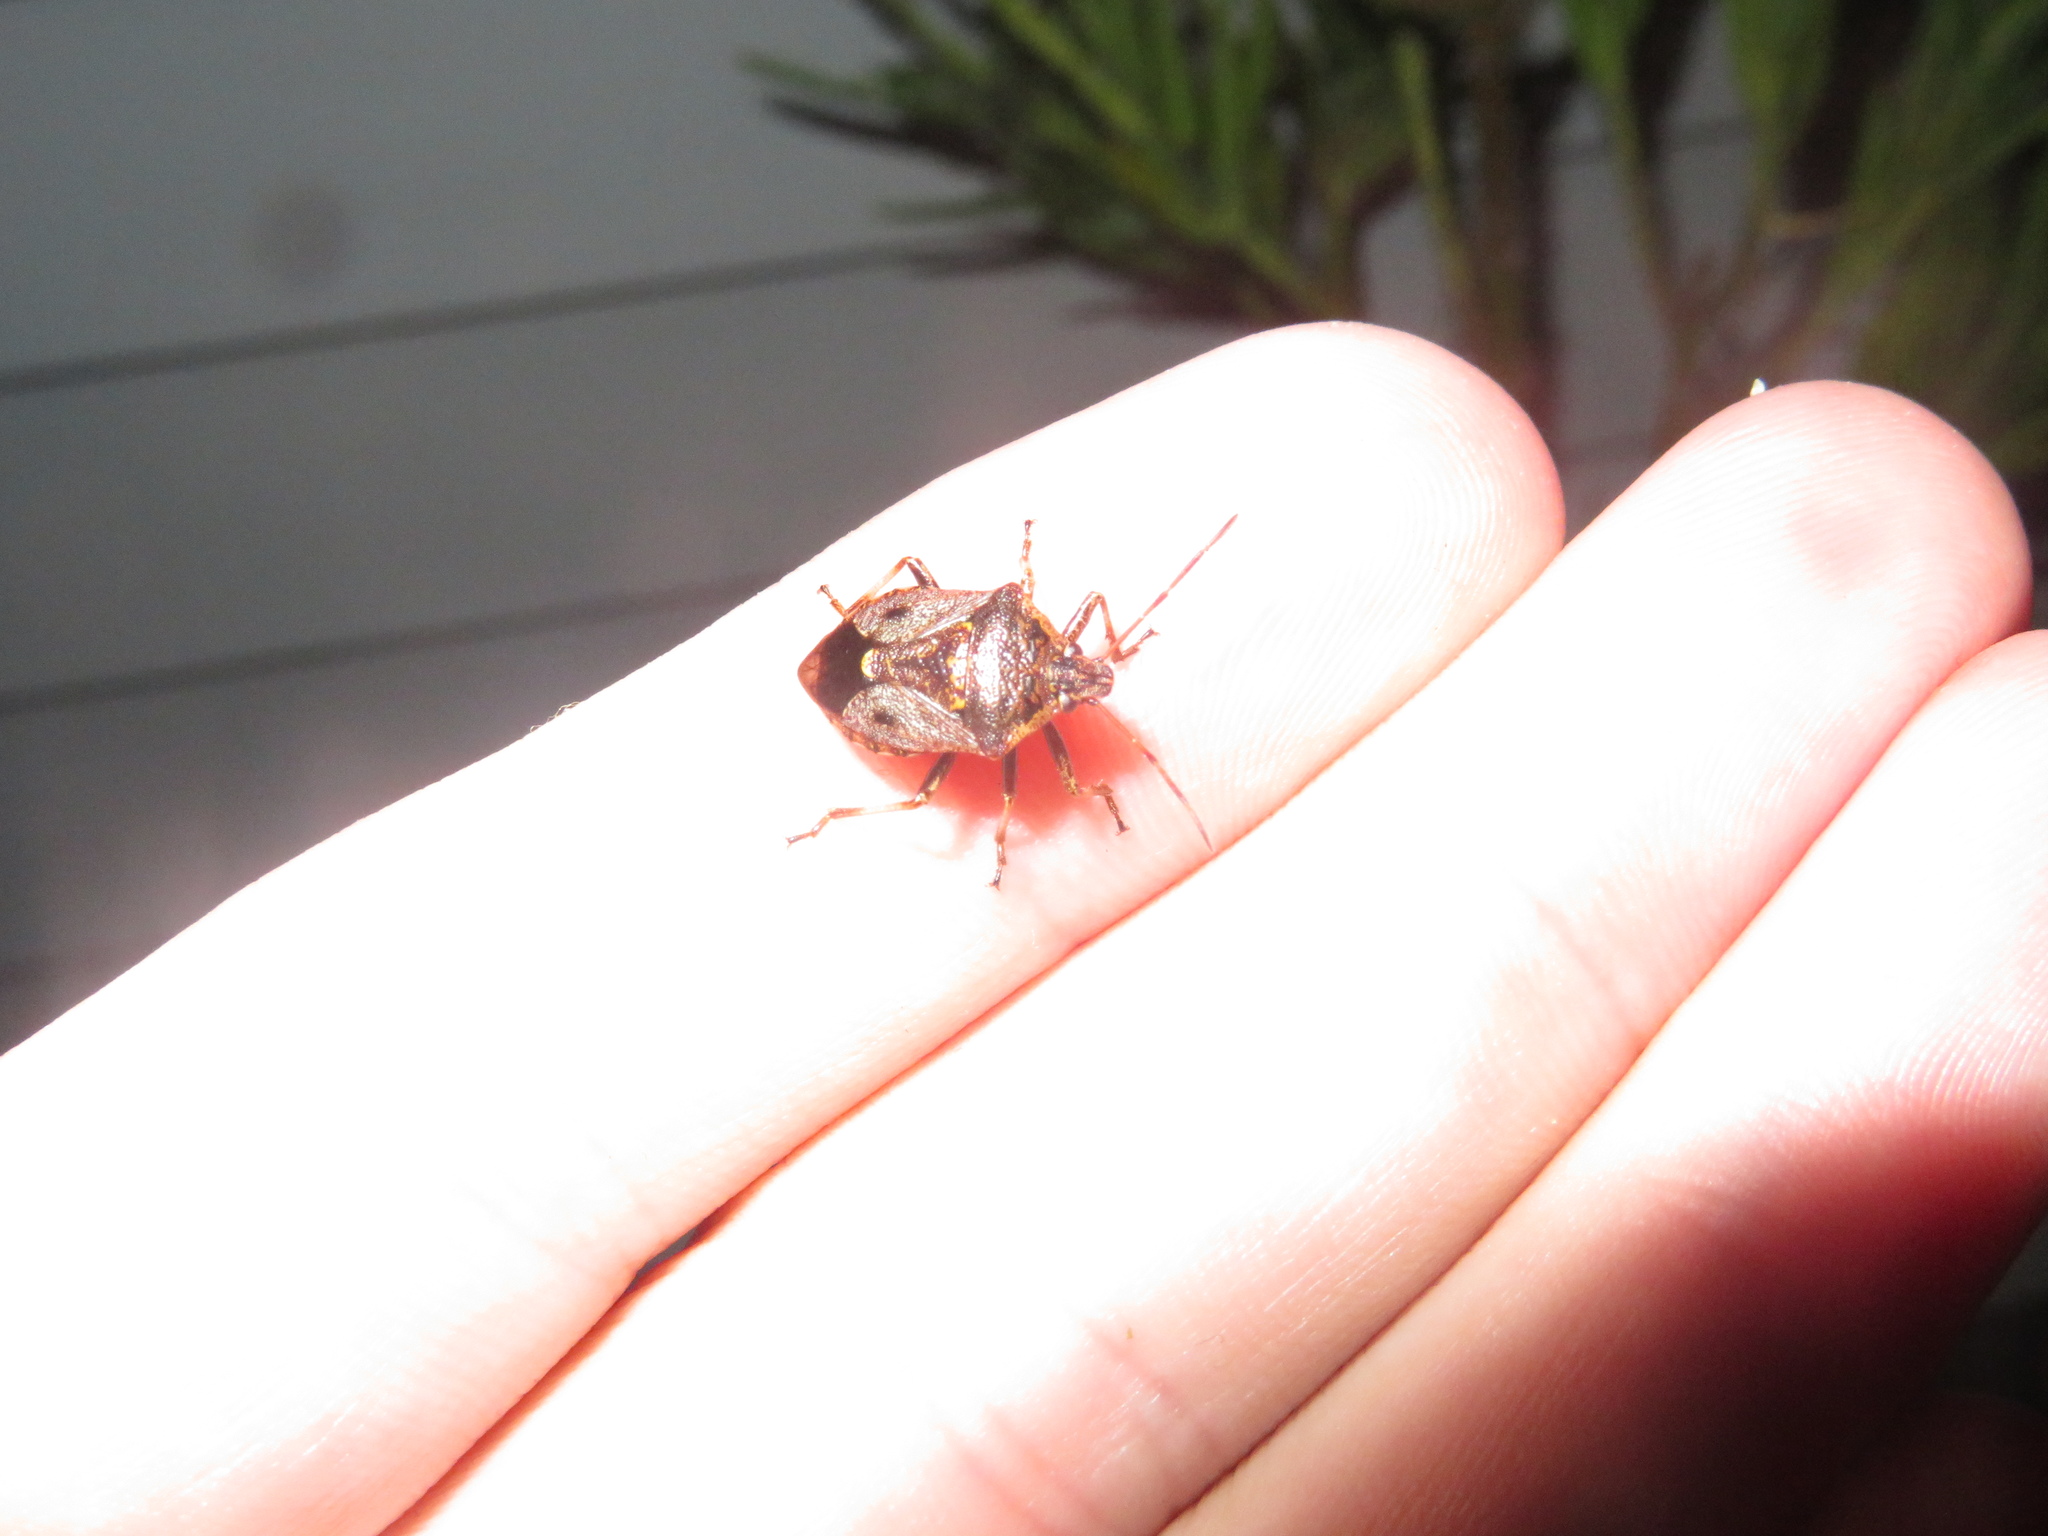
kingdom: Animalia
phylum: Arthropoda
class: Insecta
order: Hemiptera
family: Pentatomidae
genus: Cermatulus
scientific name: Cermatulus nasalis
